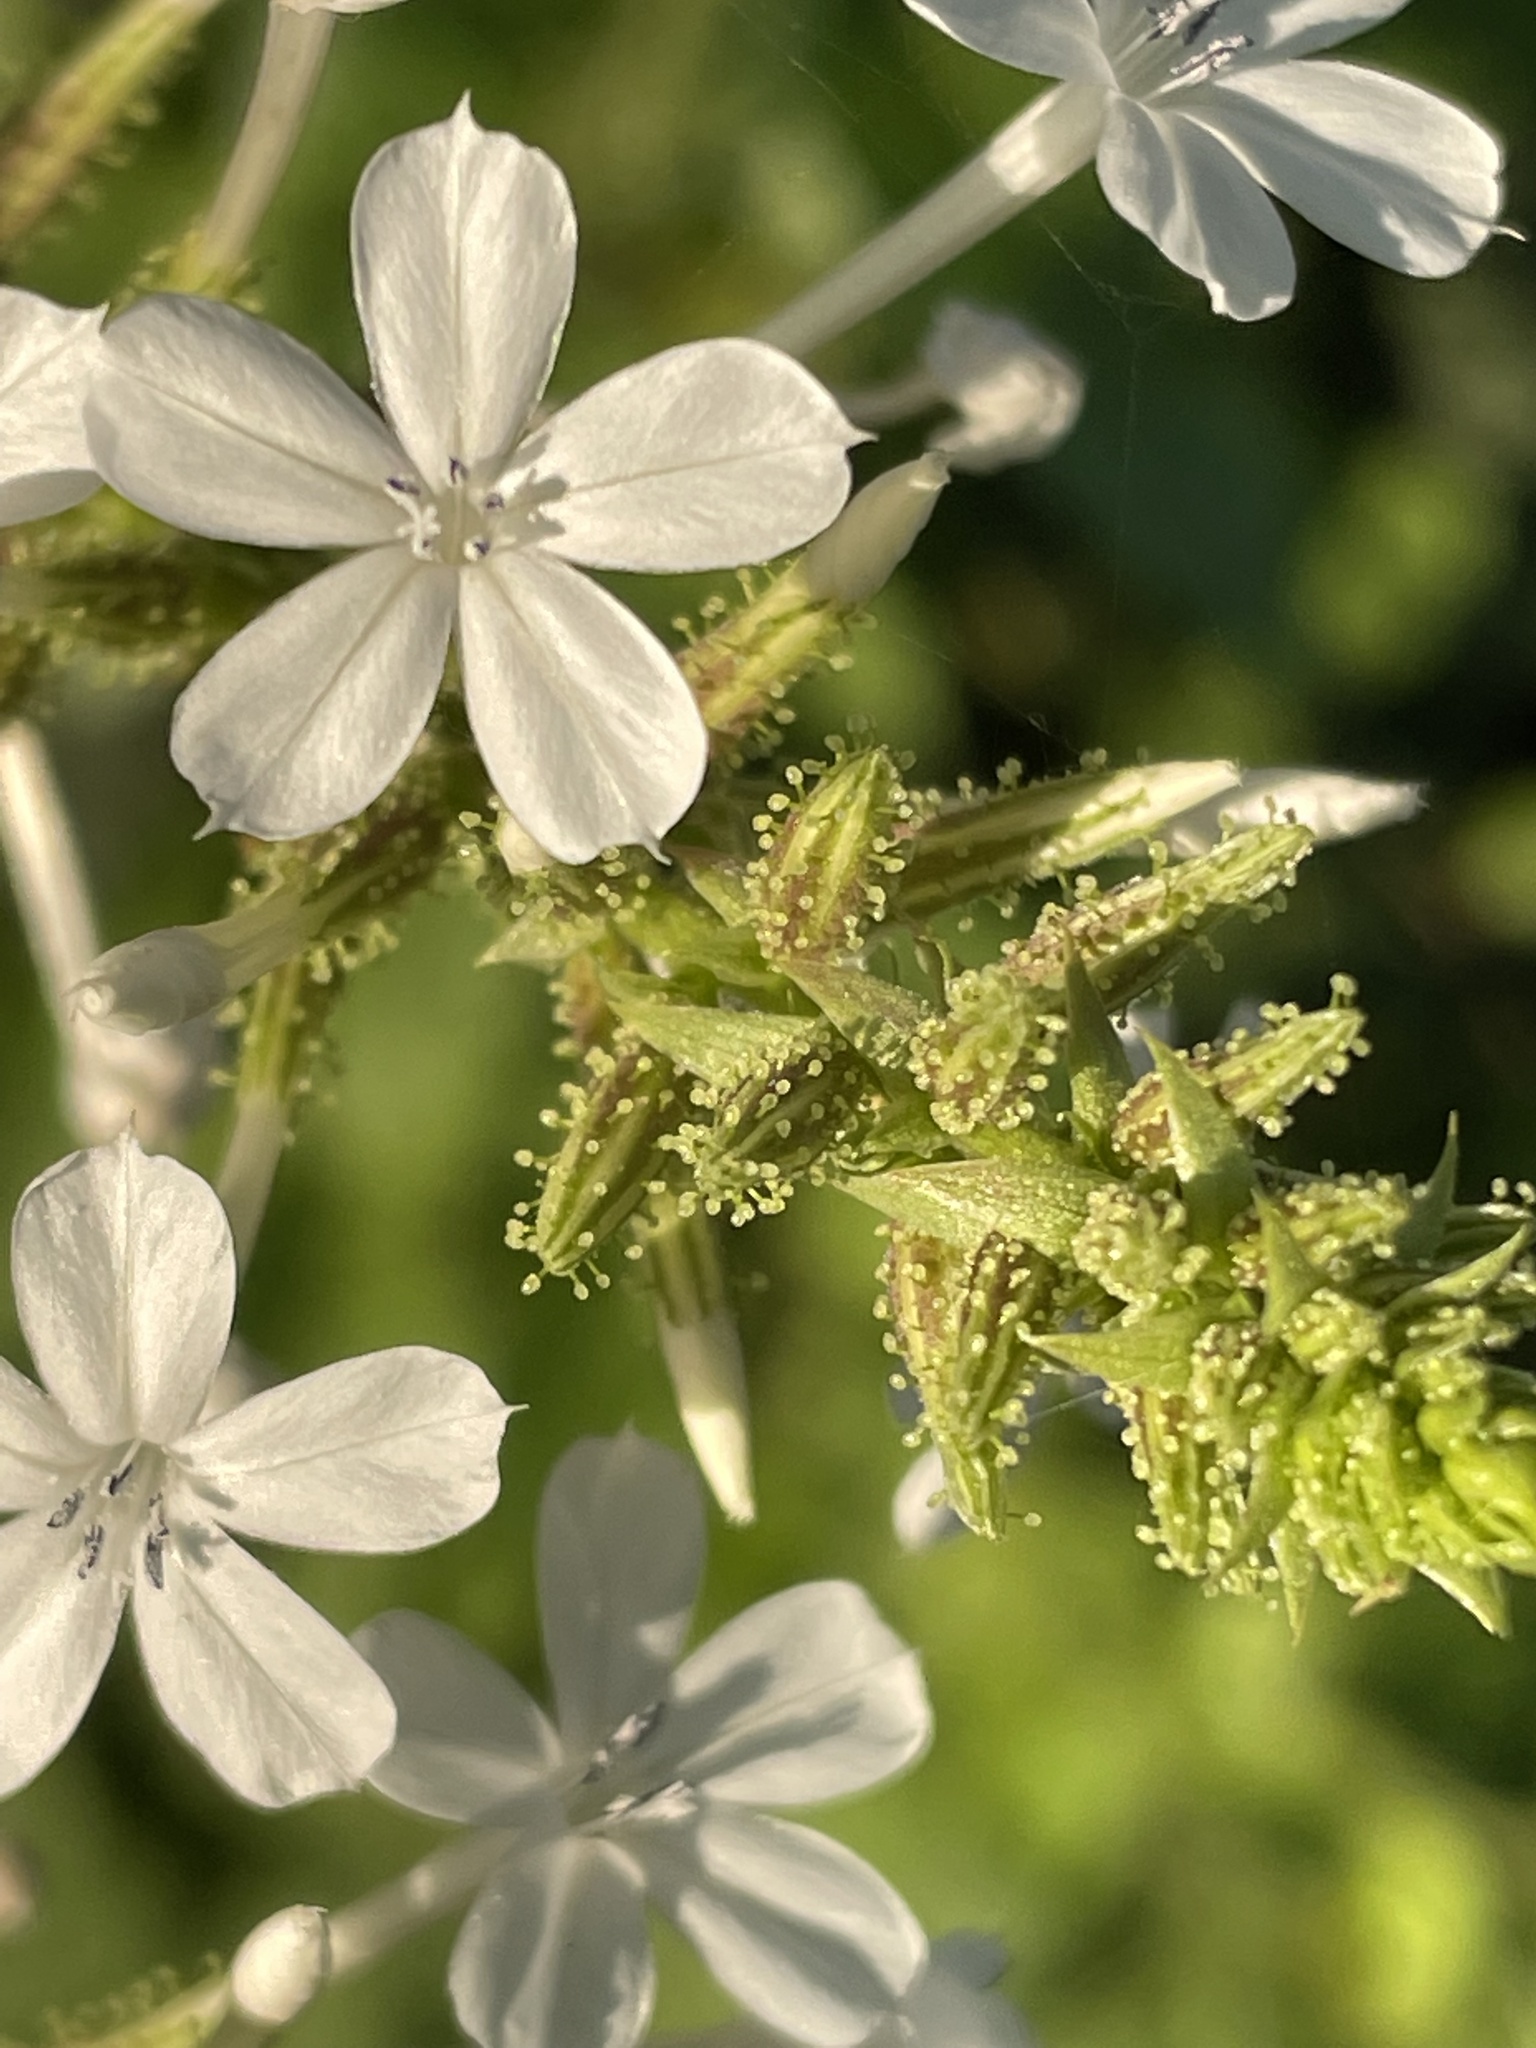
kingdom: Plantae
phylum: Tracheophyta
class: Magnoliopsida
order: Caryophyllales
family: Plumbaginaceae
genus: Plumbago
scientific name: Plumbago zeylanica
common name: Doctorbush
